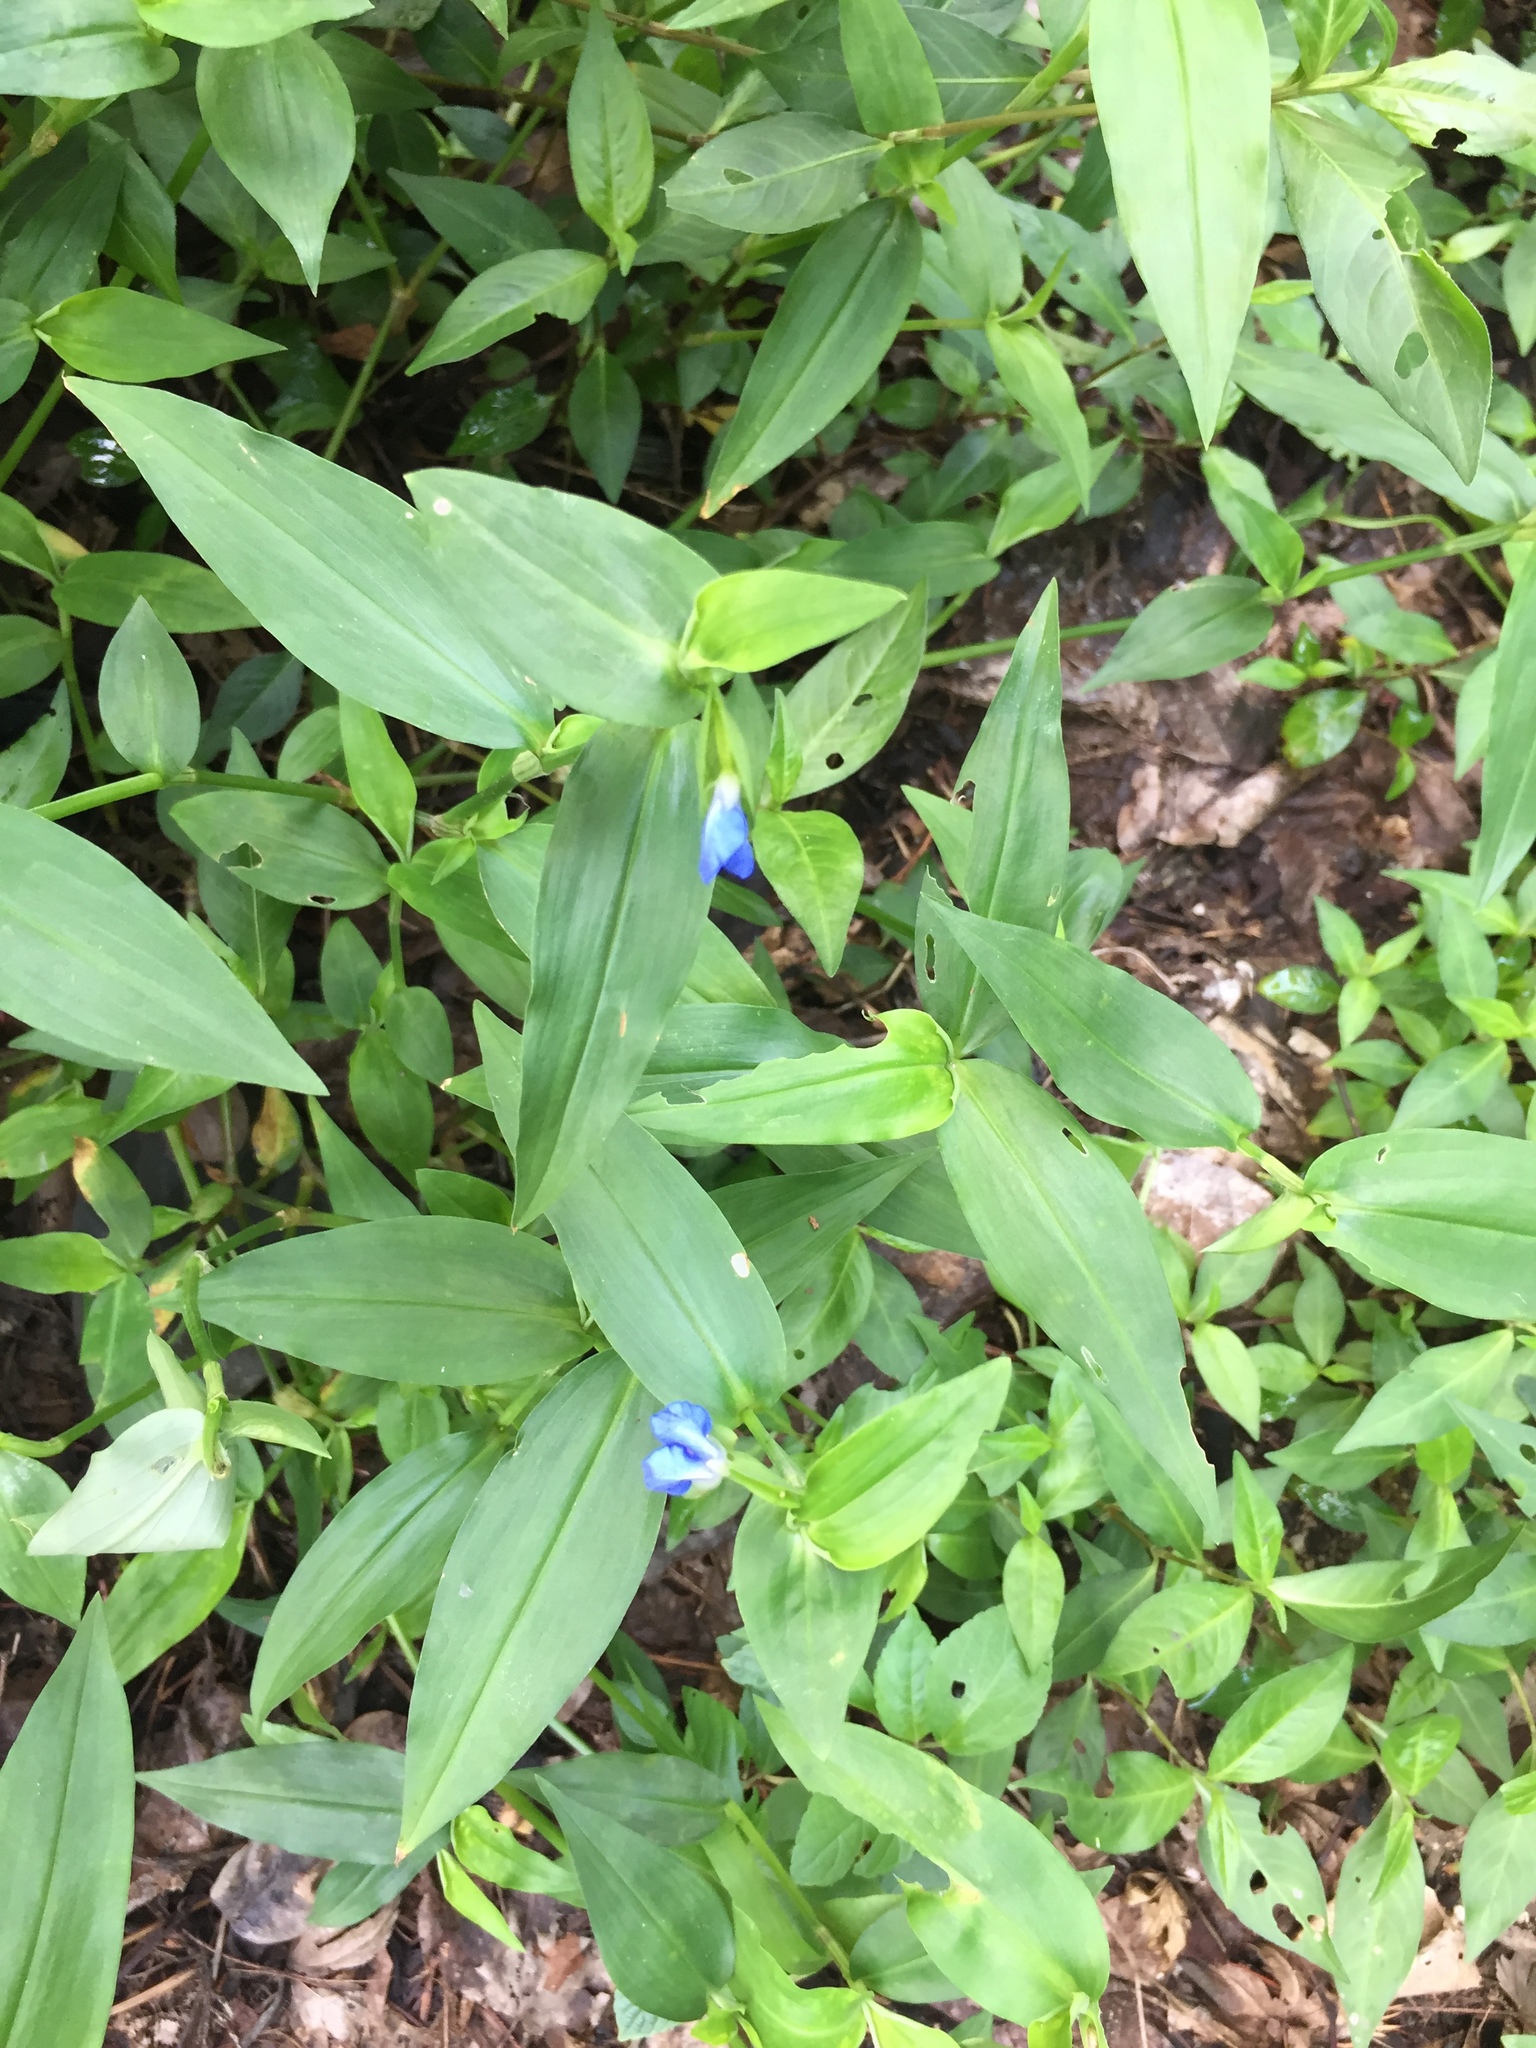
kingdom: Plantae
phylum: Tracheophyta
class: Liliopsida
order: Commelinales
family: Commelinaceae
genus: Commelina
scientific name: Commelina communis
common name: Asiatic dayflower
